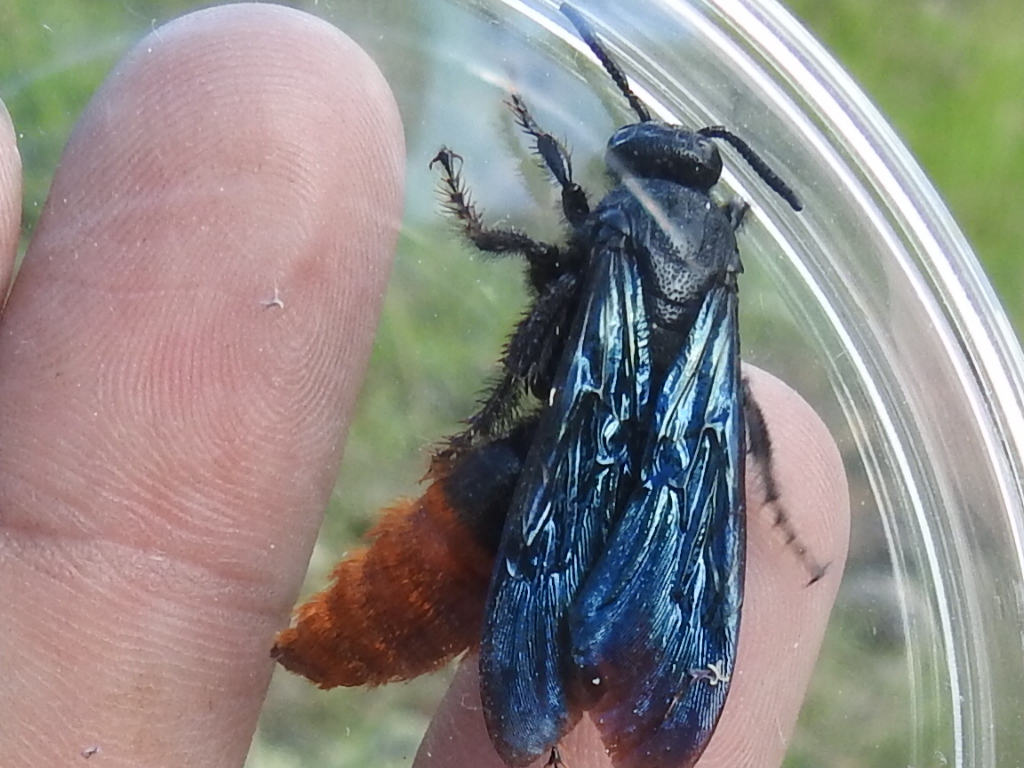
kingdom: Animalia
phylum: Arthropoda
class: Insecta
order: Hymenoptera
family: Scoliidae
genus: Triscolia
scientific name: Triscolia ardens
